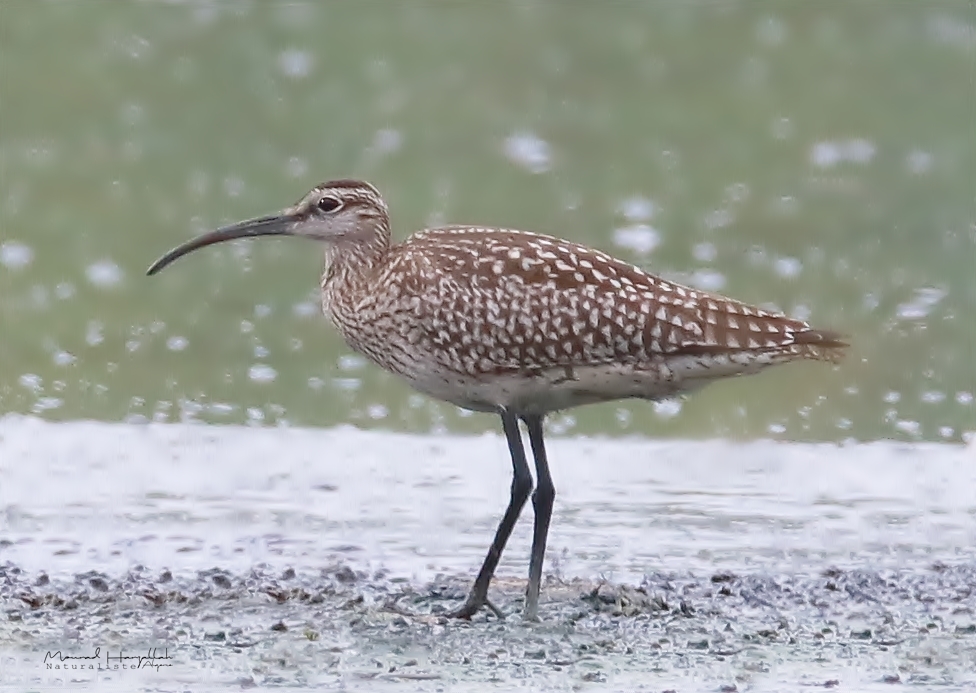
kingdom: Animalia
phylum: Chordata
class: Aves
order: Charadriiformes
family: Scolopacidae
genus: Numenius
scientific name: Numenius phaeopus
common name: Whimbrel
